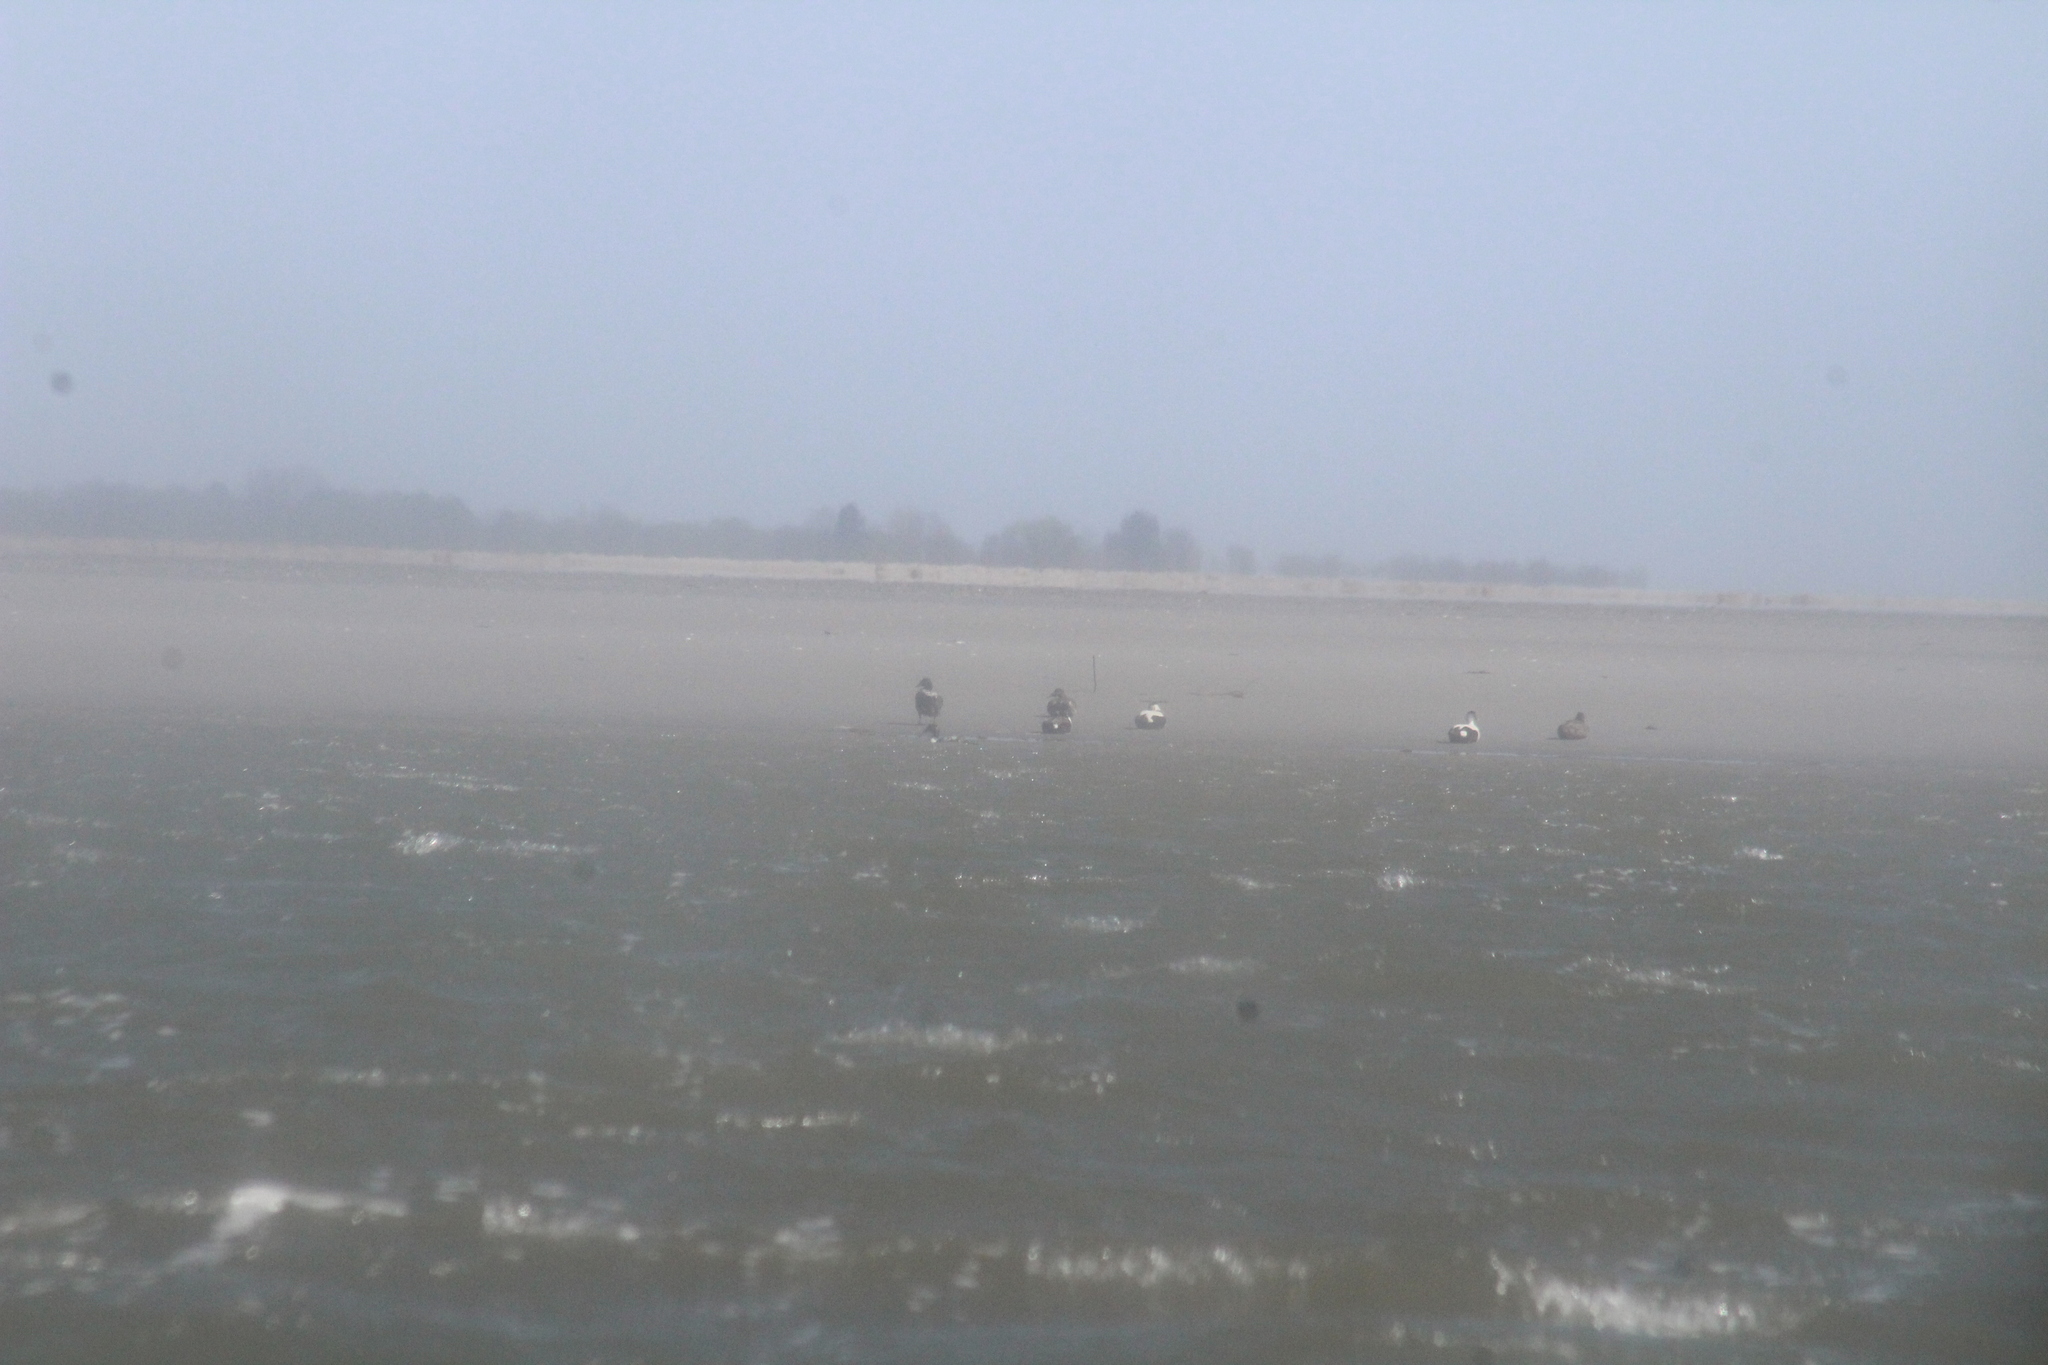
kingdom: Animalia
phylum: Chordata
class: Aves
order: Anseriformes
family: Anatidae
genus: Somateria
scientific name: Somateria mollissima
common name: Common eider
